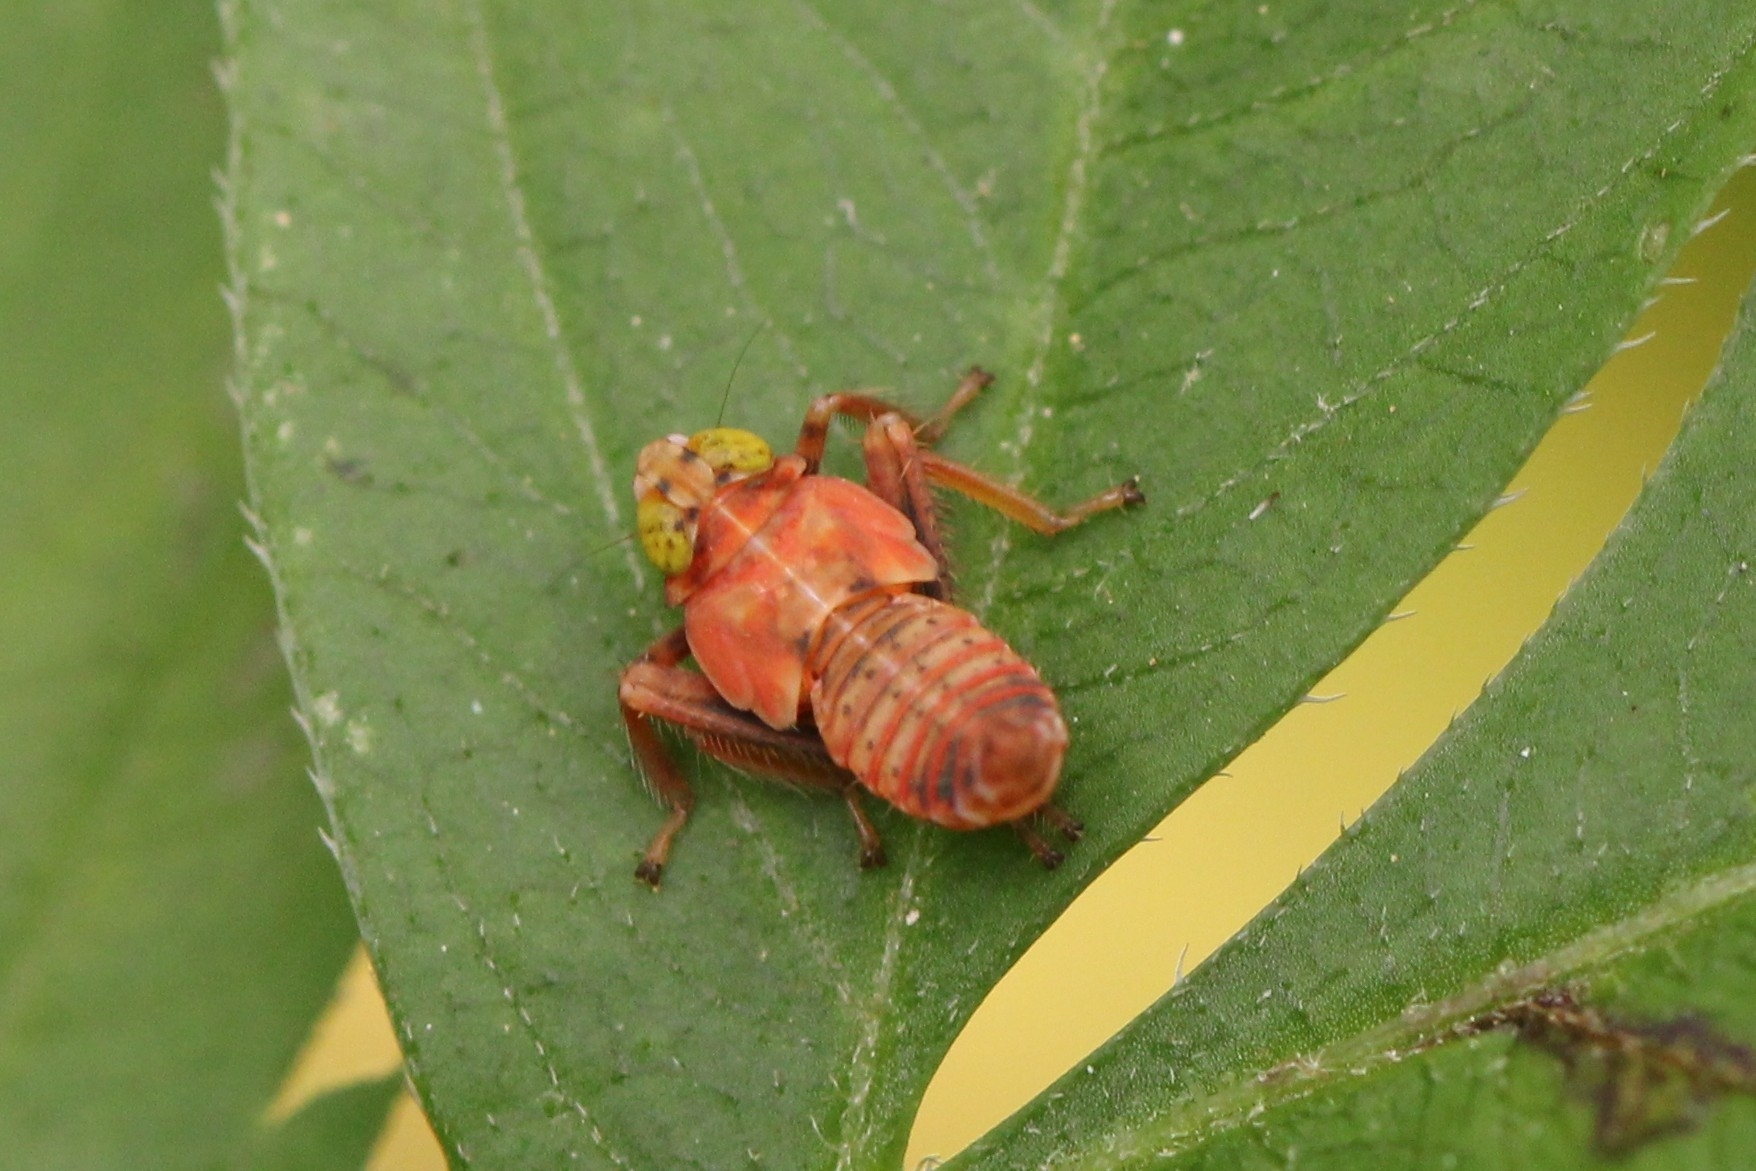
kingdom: Animalia
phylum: Arthropoda
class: Insecta
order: Hemiptera
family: Cicadellidae
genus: Jikradia
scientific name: Jikradia olitoria
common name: Coppery leafhopper
